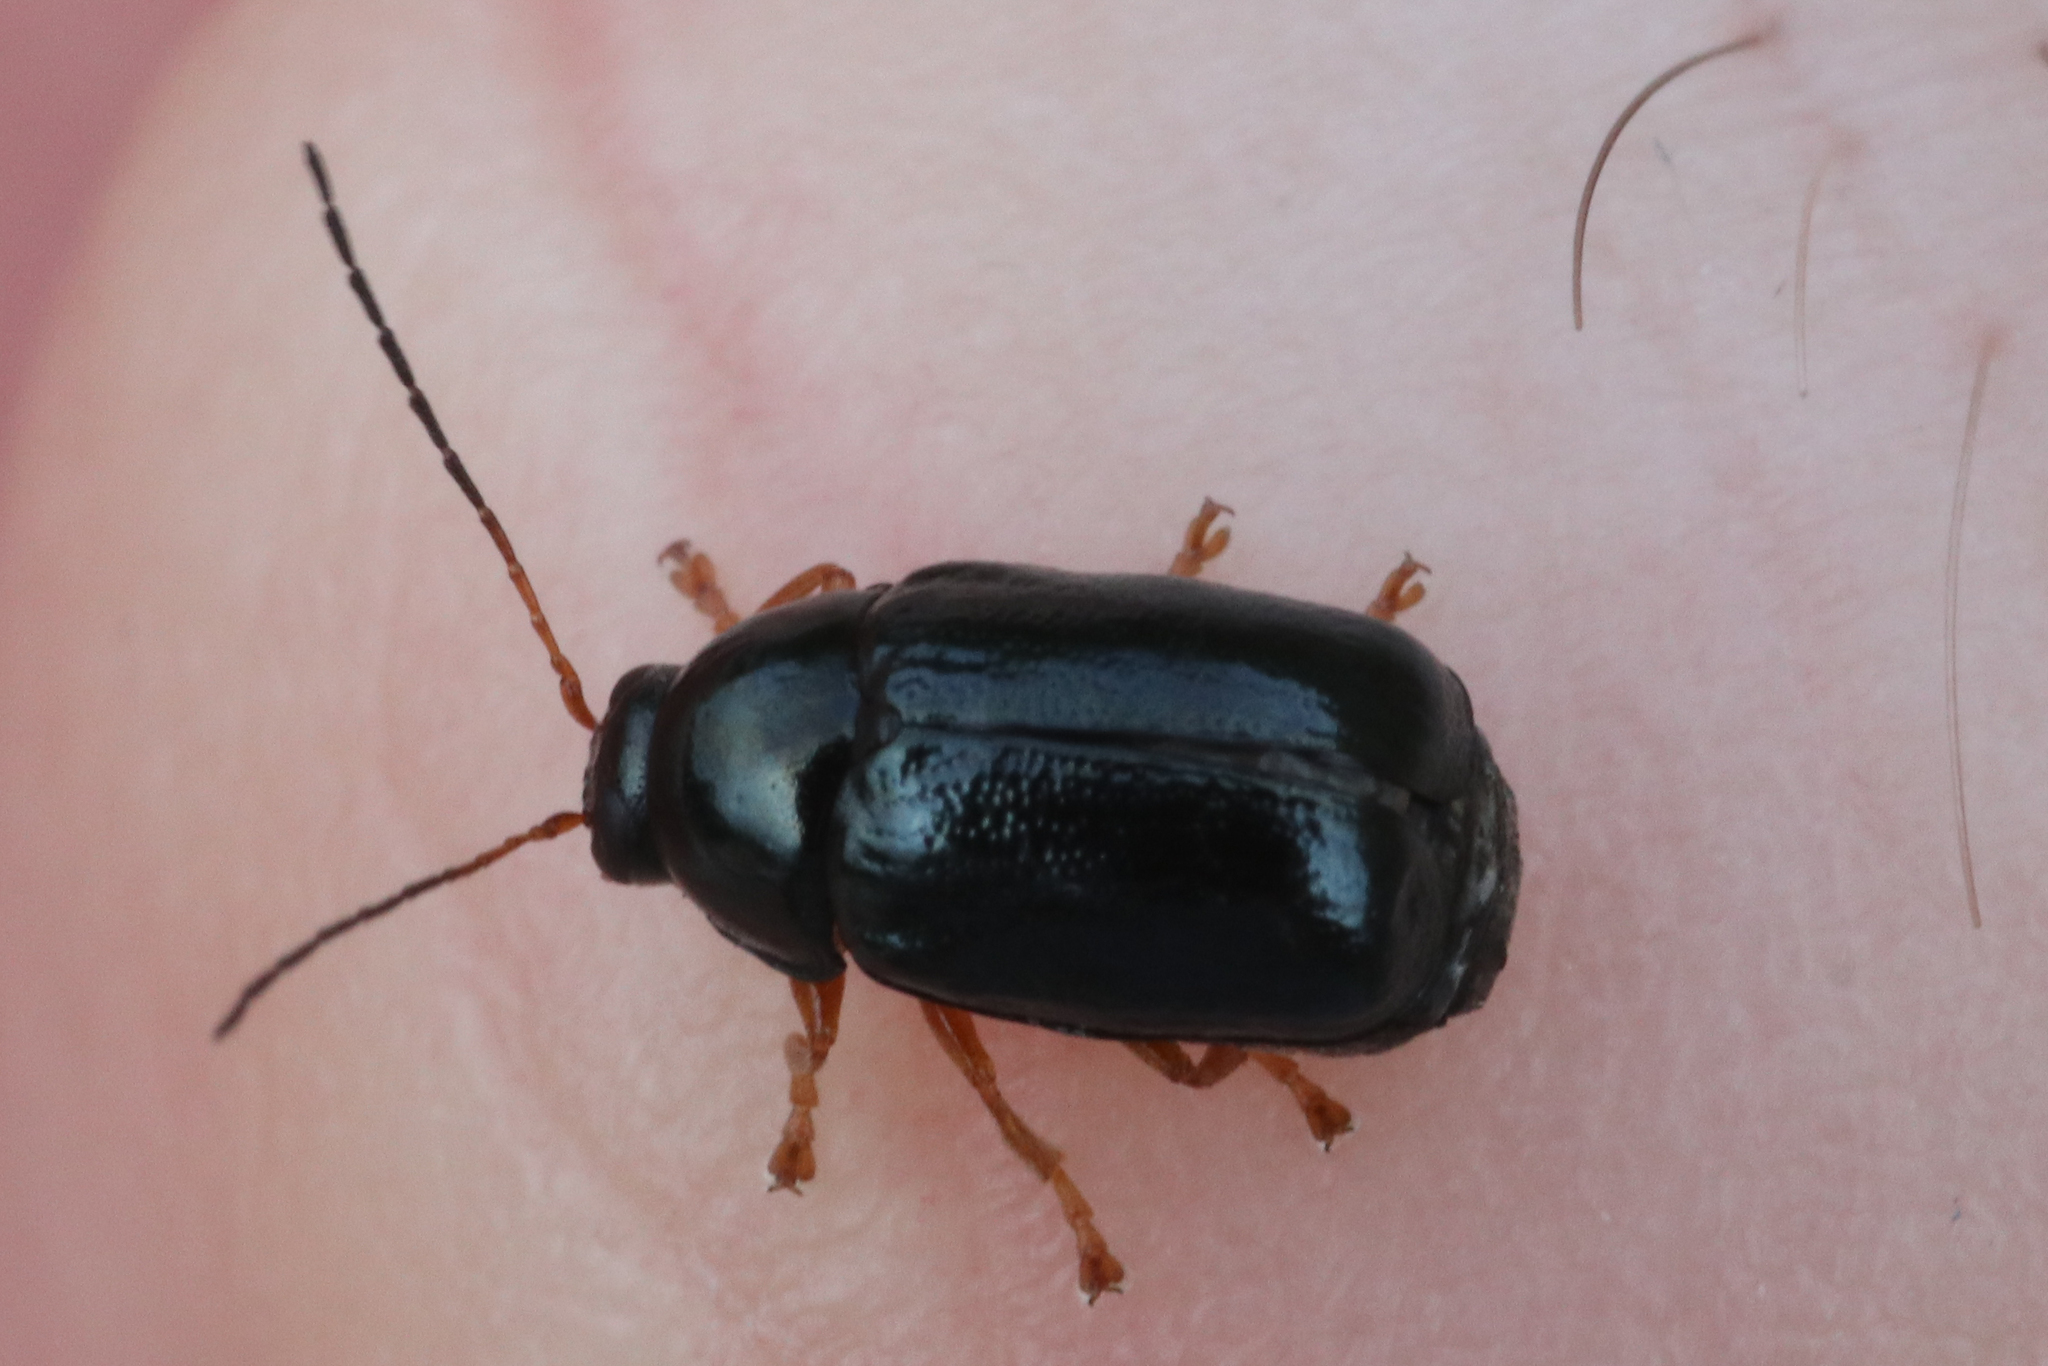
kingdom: Animalia
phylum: Arthropoda
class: Insecta
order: Coleoptera
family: Chrysomelidae
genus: Cryptocephalus
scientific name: Cryptocephalus nitidus
